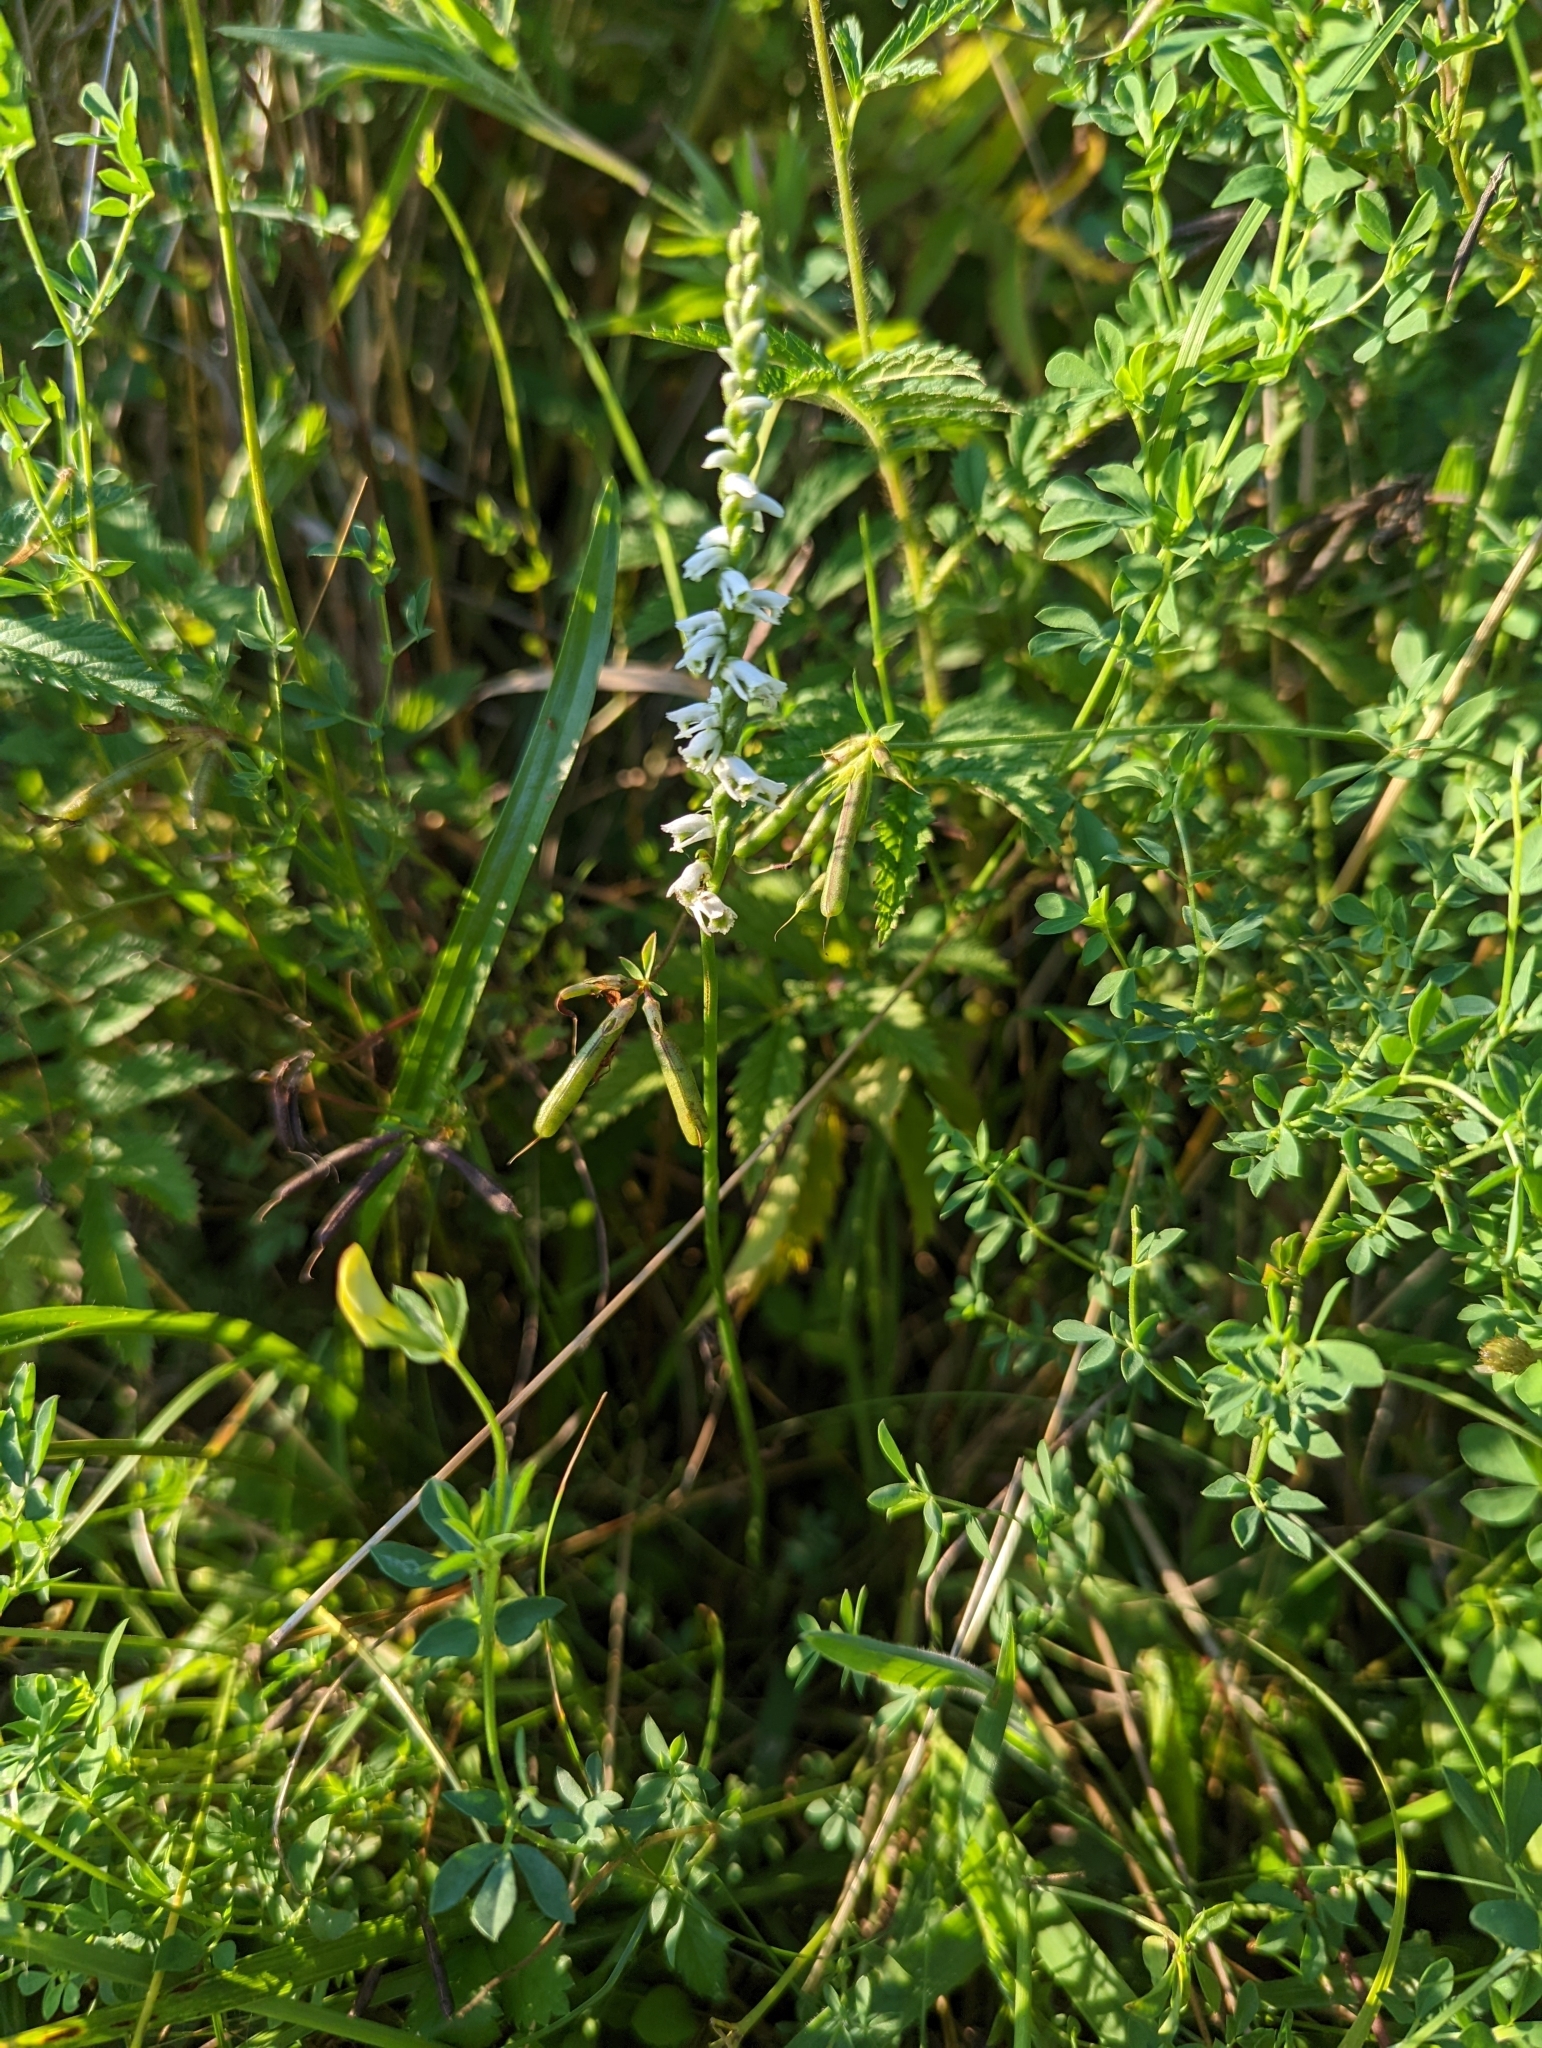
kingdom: Plantae
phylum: Tracheophyta
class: Liliopsida
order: Asparagales
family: Orchidaceae
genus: Spiranthes
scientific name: Spiranthes lacera
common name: Northern slender ladies'-tresses
